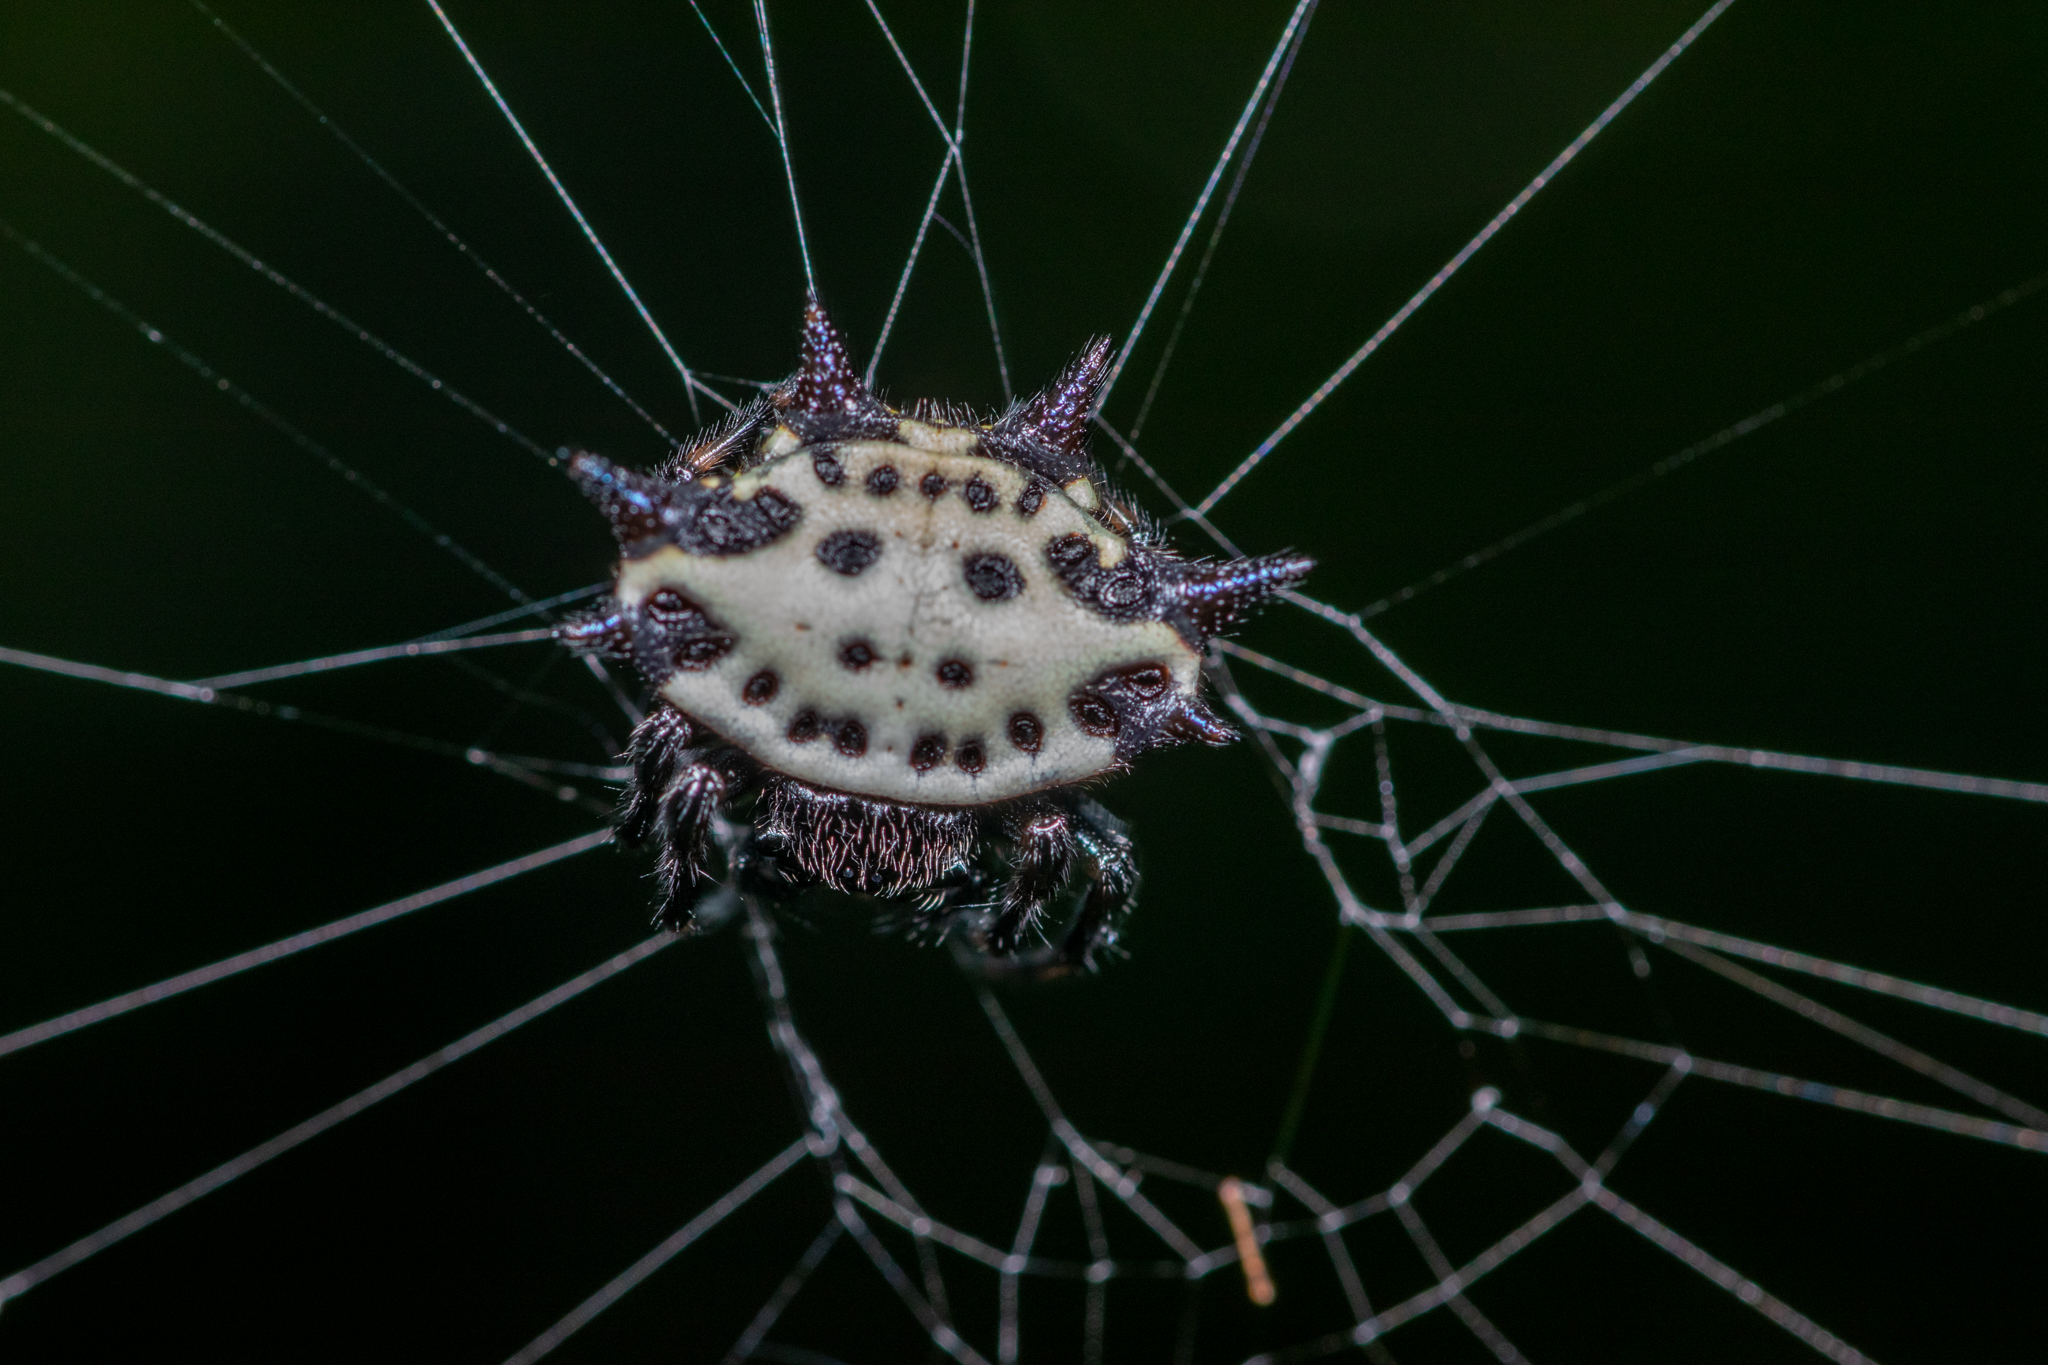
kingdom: Animalia
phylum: Arthropoda
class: Arachnida
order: Araneae
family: Araneidae
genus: Gasteracantha
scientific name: Gasteracantha cancriformis
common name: Orb weavers
